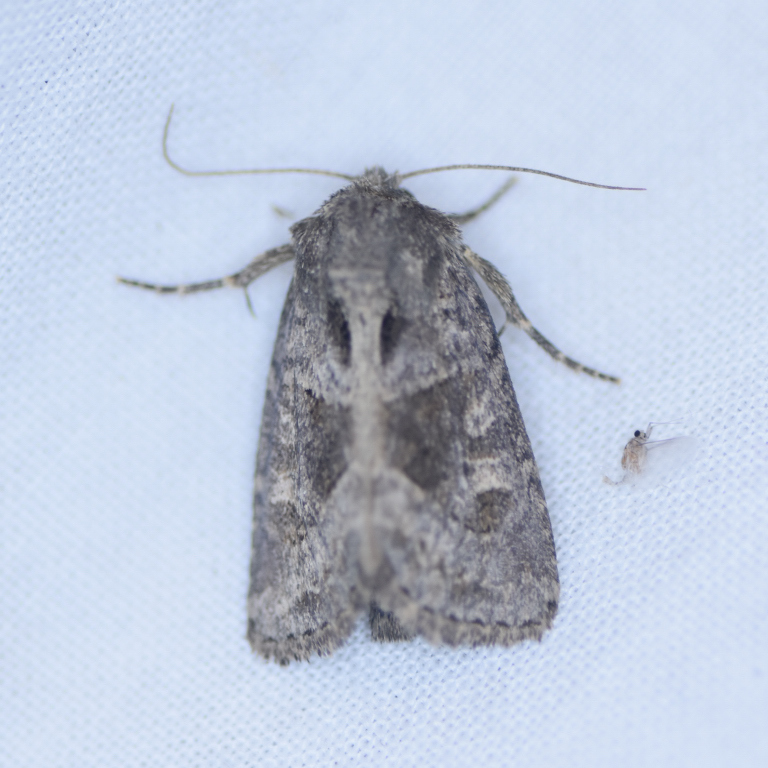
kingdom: Animalia
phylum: Arthropoda
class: Insecta
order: Lepidoptera
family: Noctuidae
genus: Oligia
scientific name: Oligia obtusa
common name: Obtuse sedge borer
